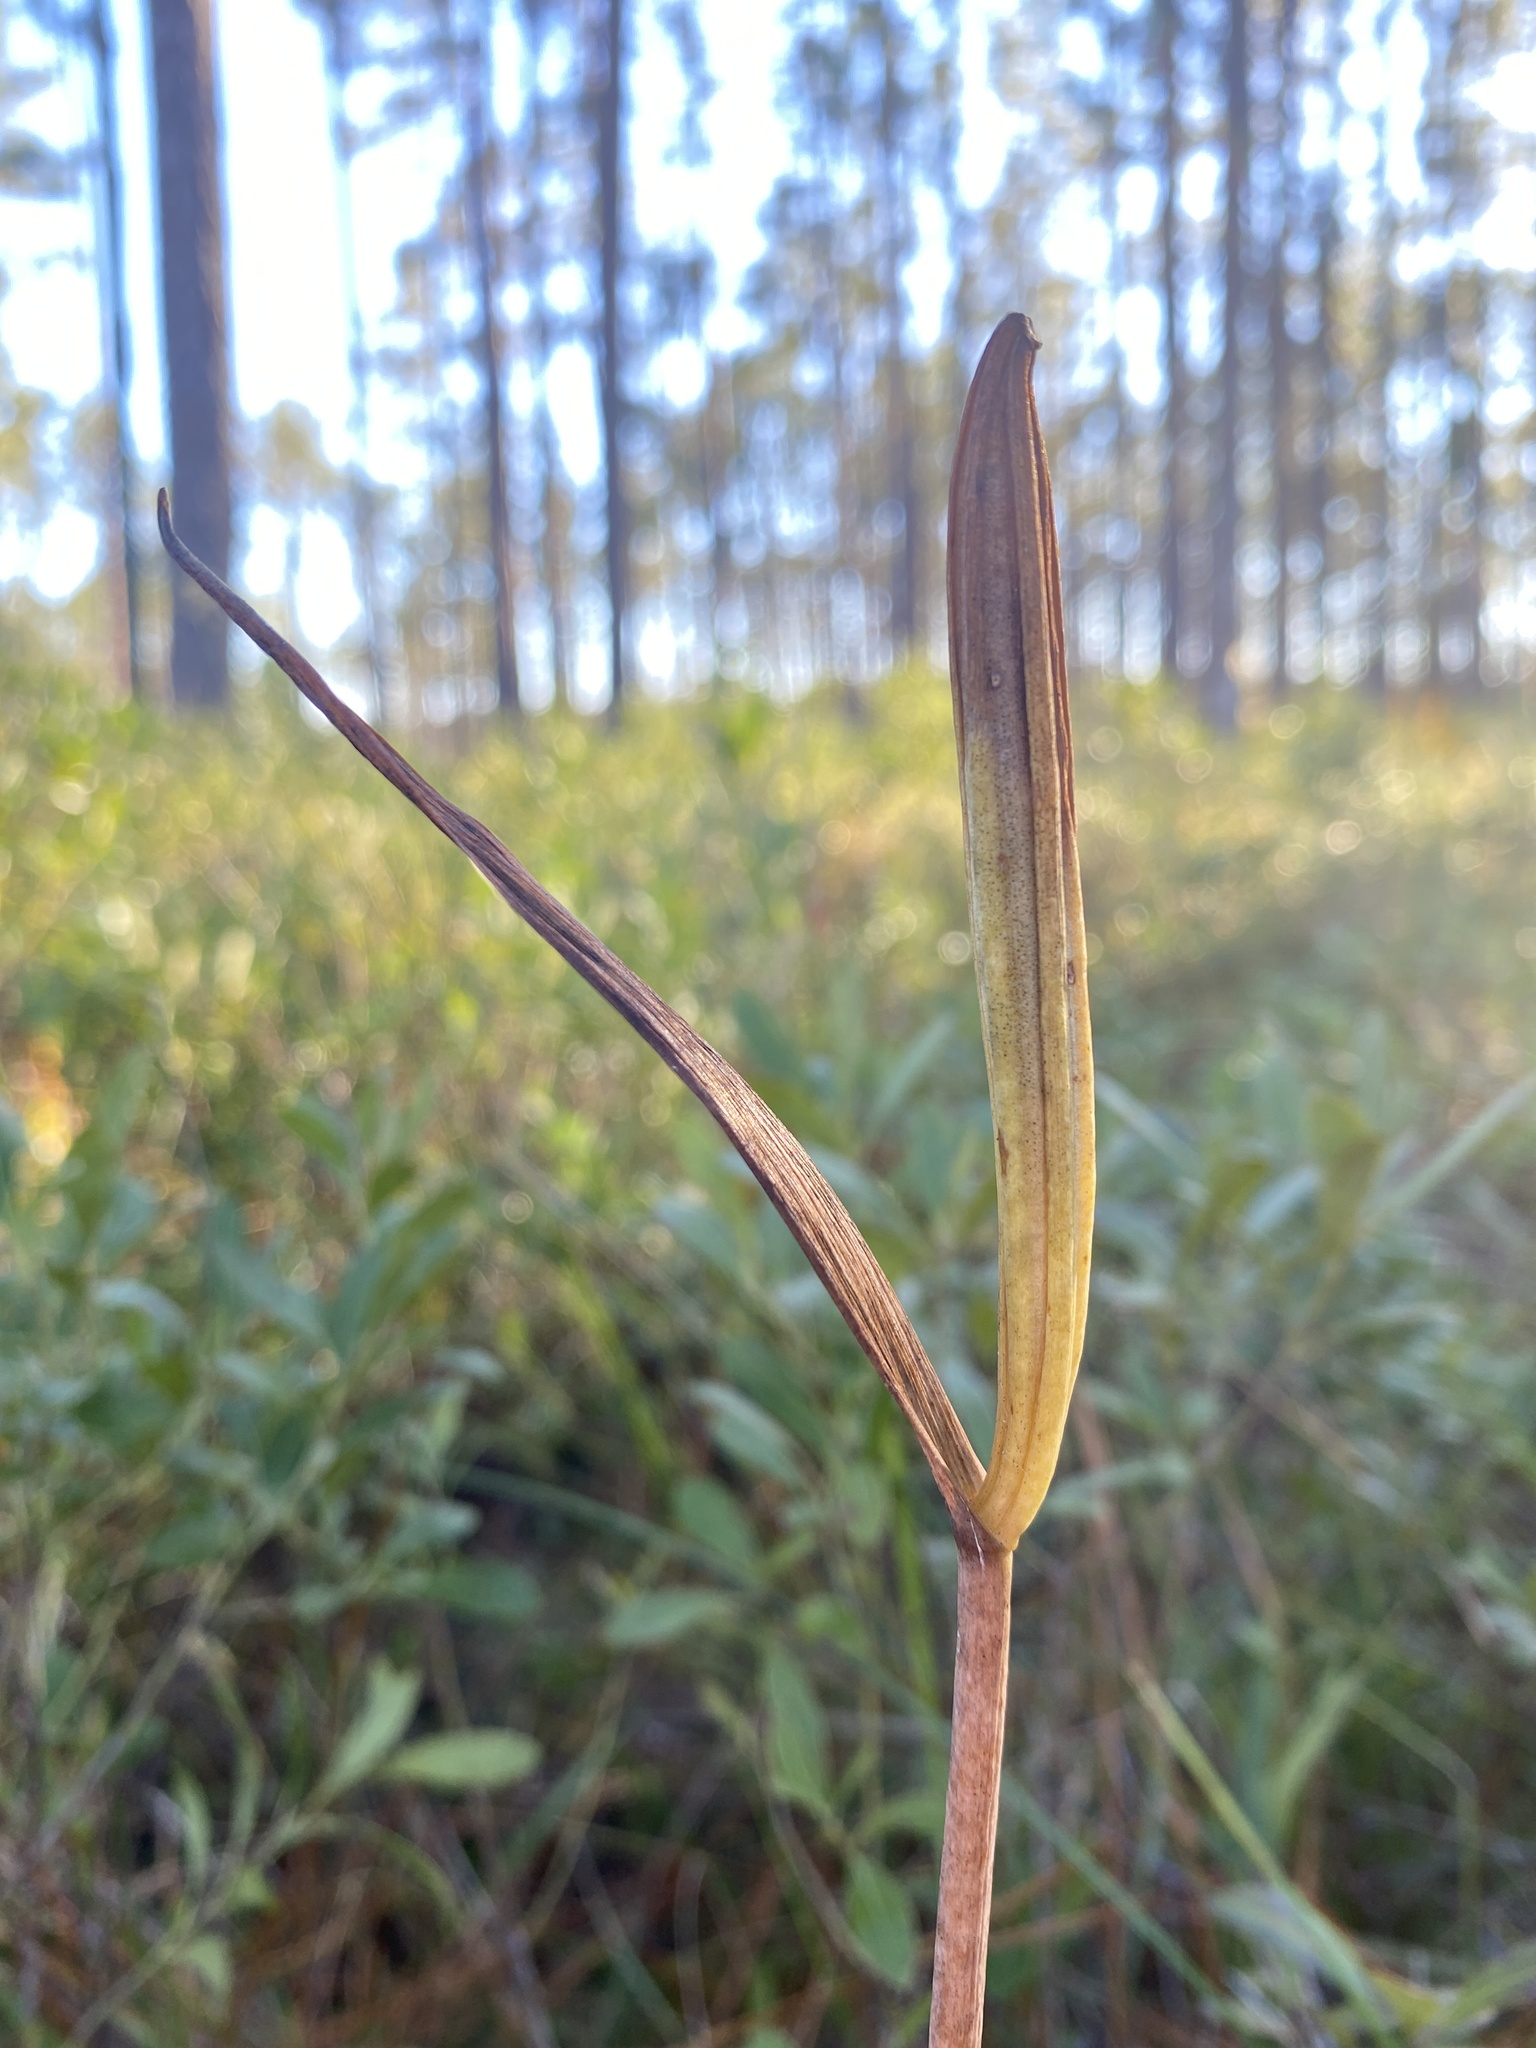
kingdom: Plantae
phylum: Tracheophyta
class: Liliopsida
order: Asparagales
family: Orchidaceae
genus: Cleistesiopsis
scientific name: Cleistesiopsis divaricata
